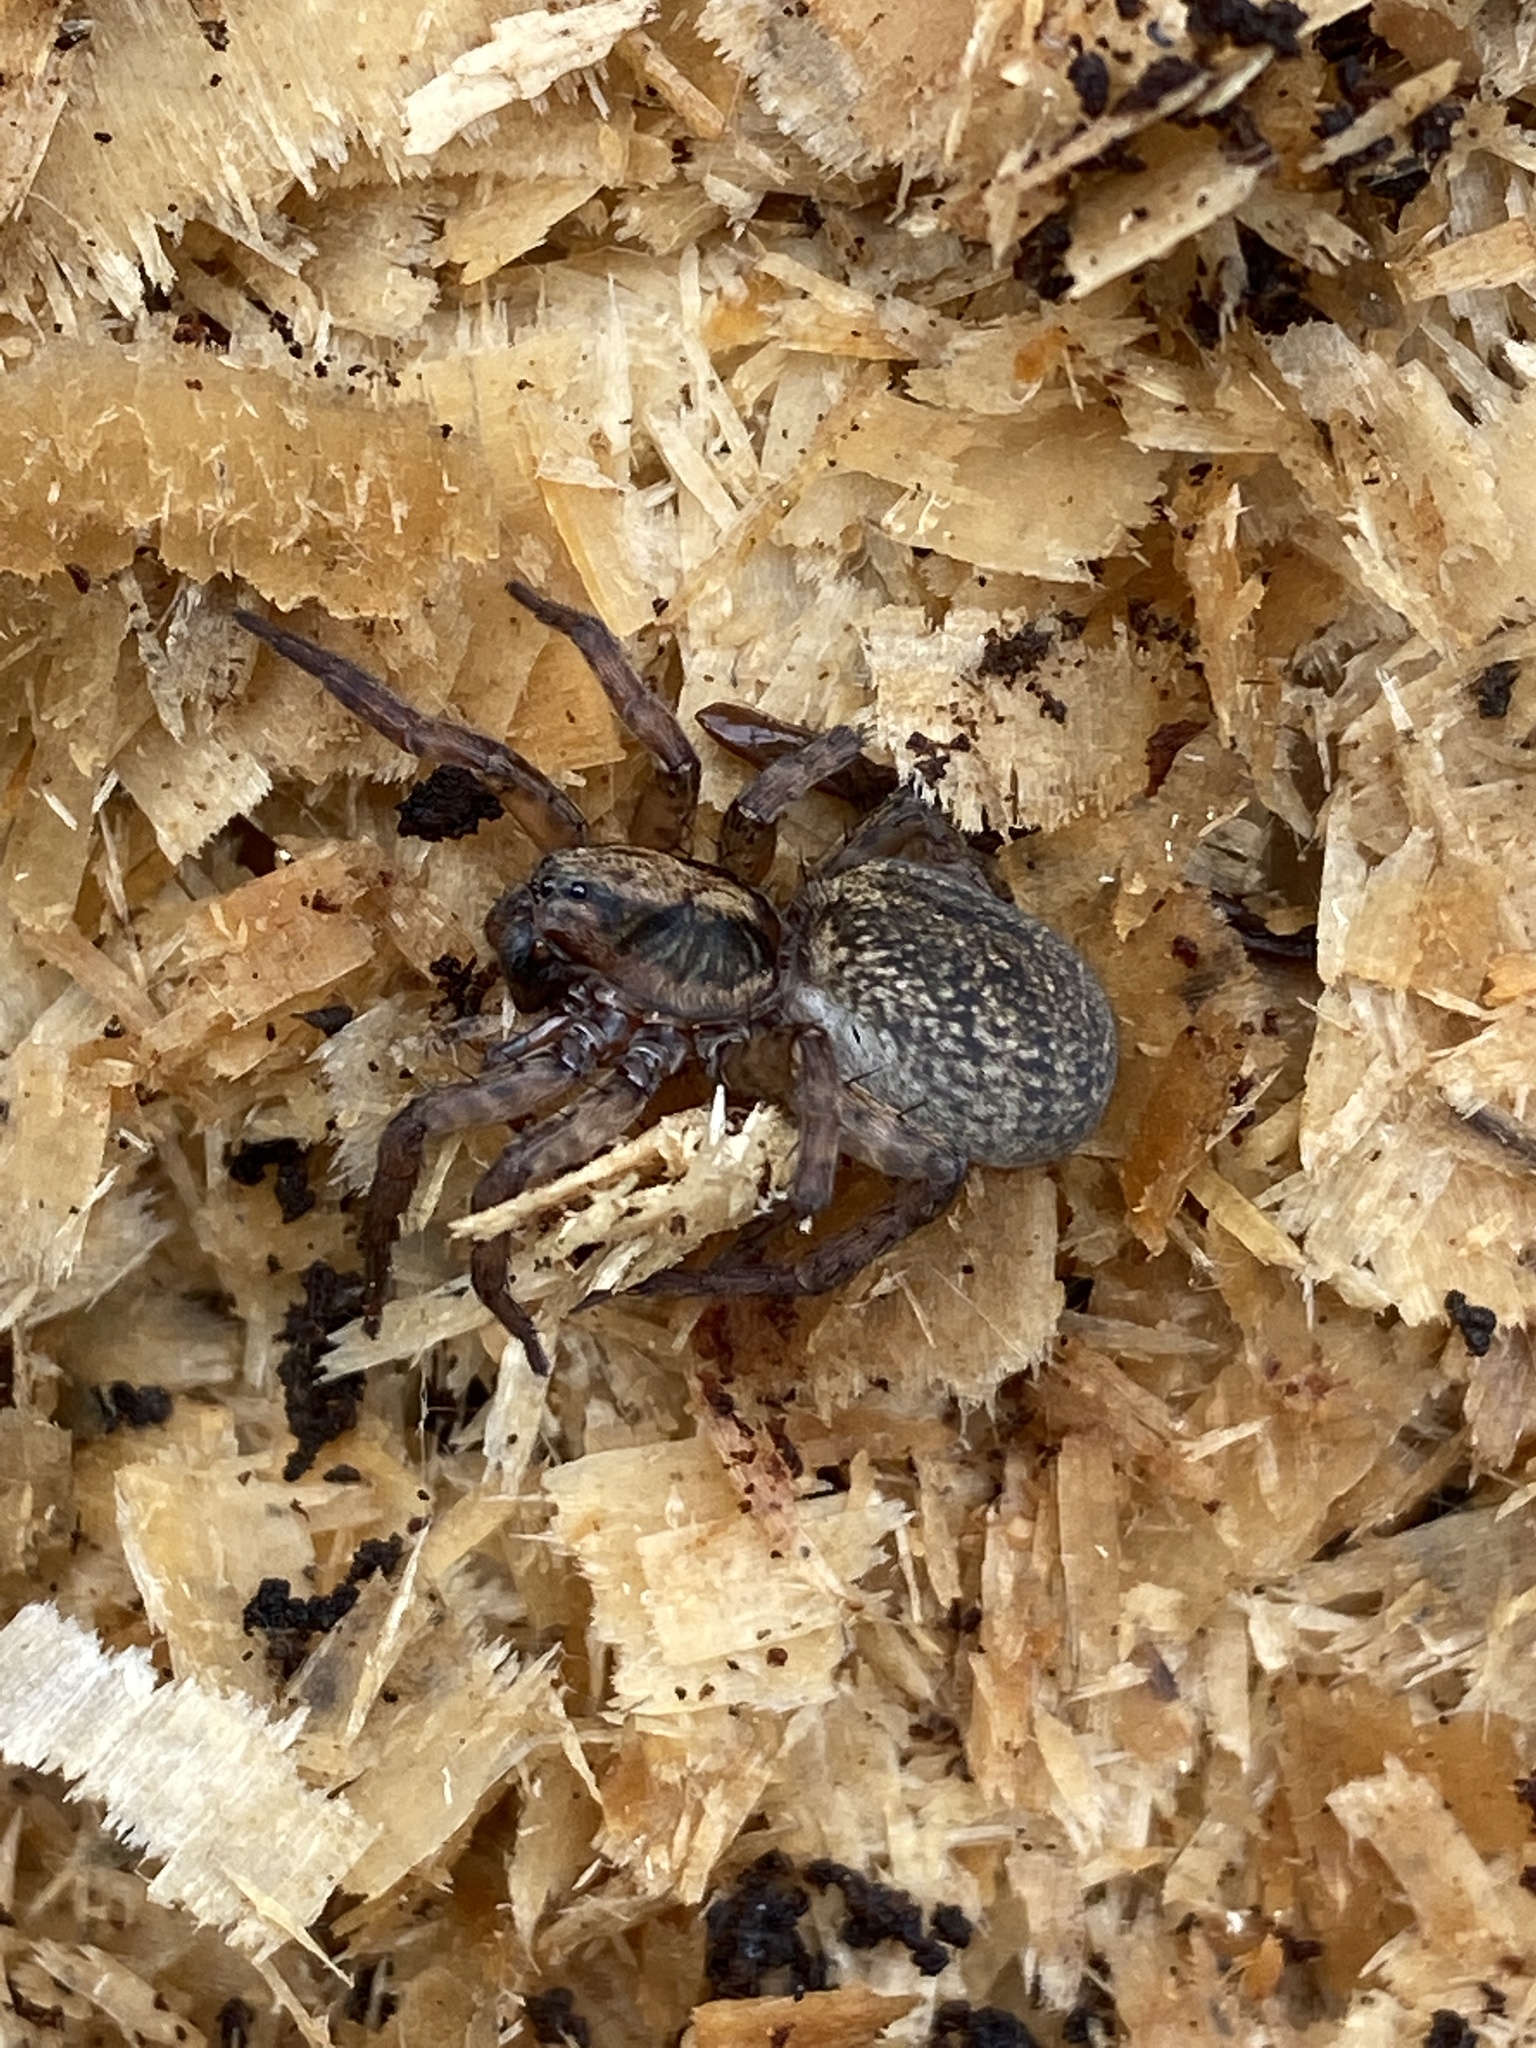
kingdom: Animalia
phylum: Arthropoda
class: Arachnida
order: Araneae
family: Lycosidae
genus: Trochosa
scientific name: Trochosa
